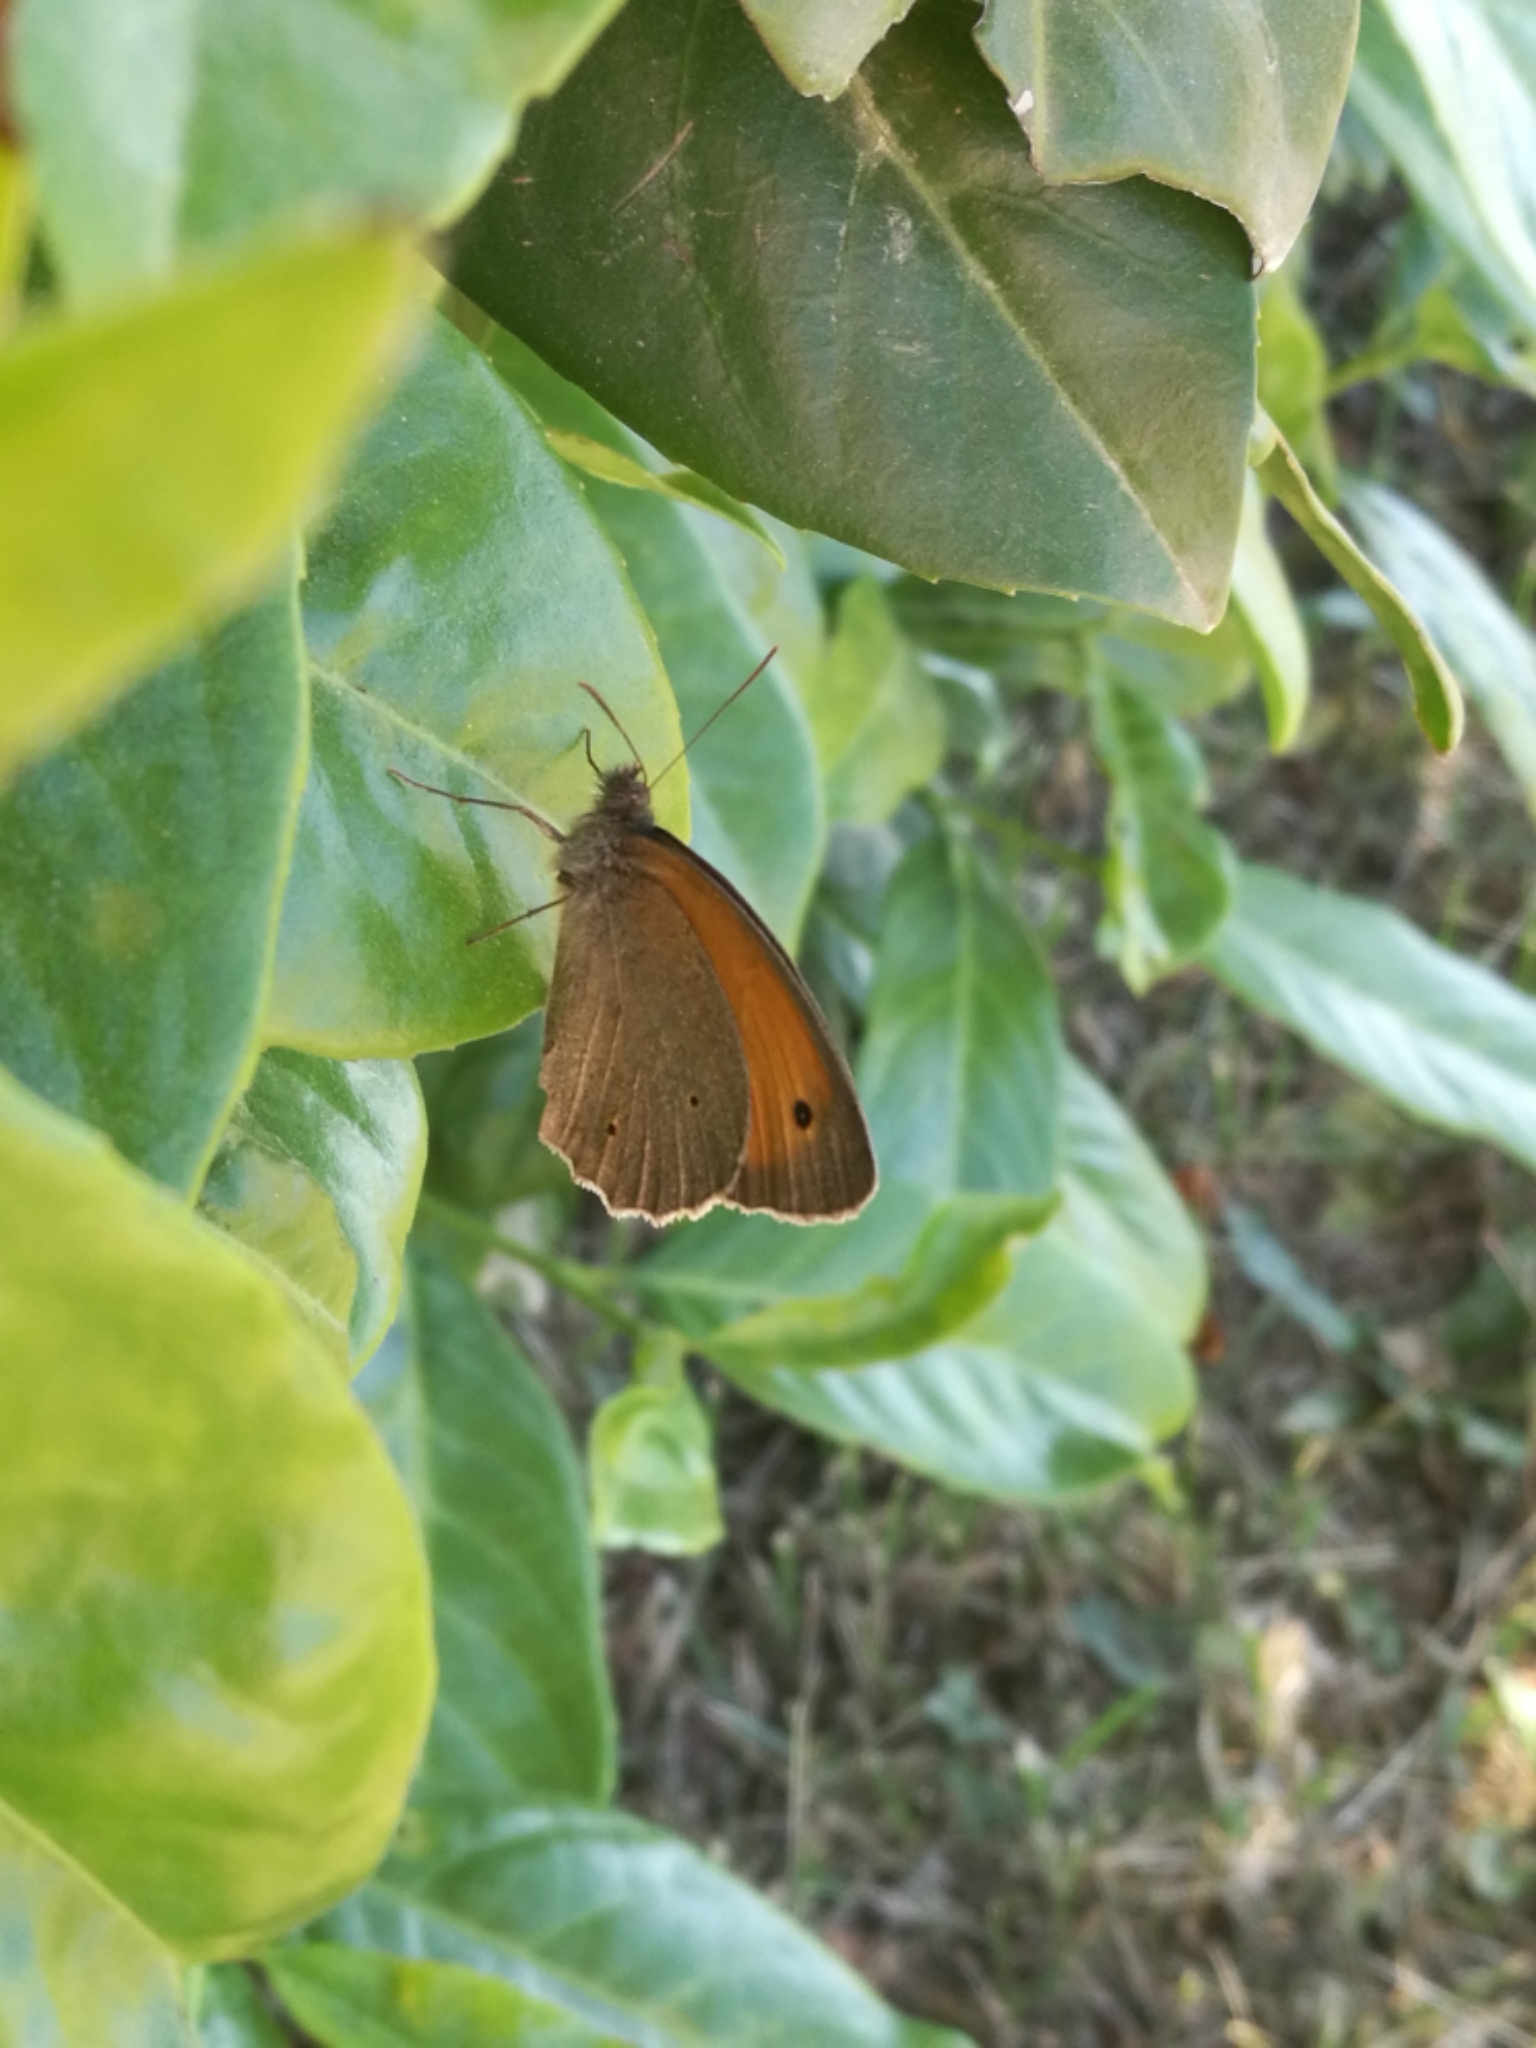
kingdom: Animalia
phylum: Arthropoda
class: Insecta
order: Lepidoptera
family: Nymphalidae
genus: Maniola
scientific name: Maniola jurtina
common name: Meadow brown
